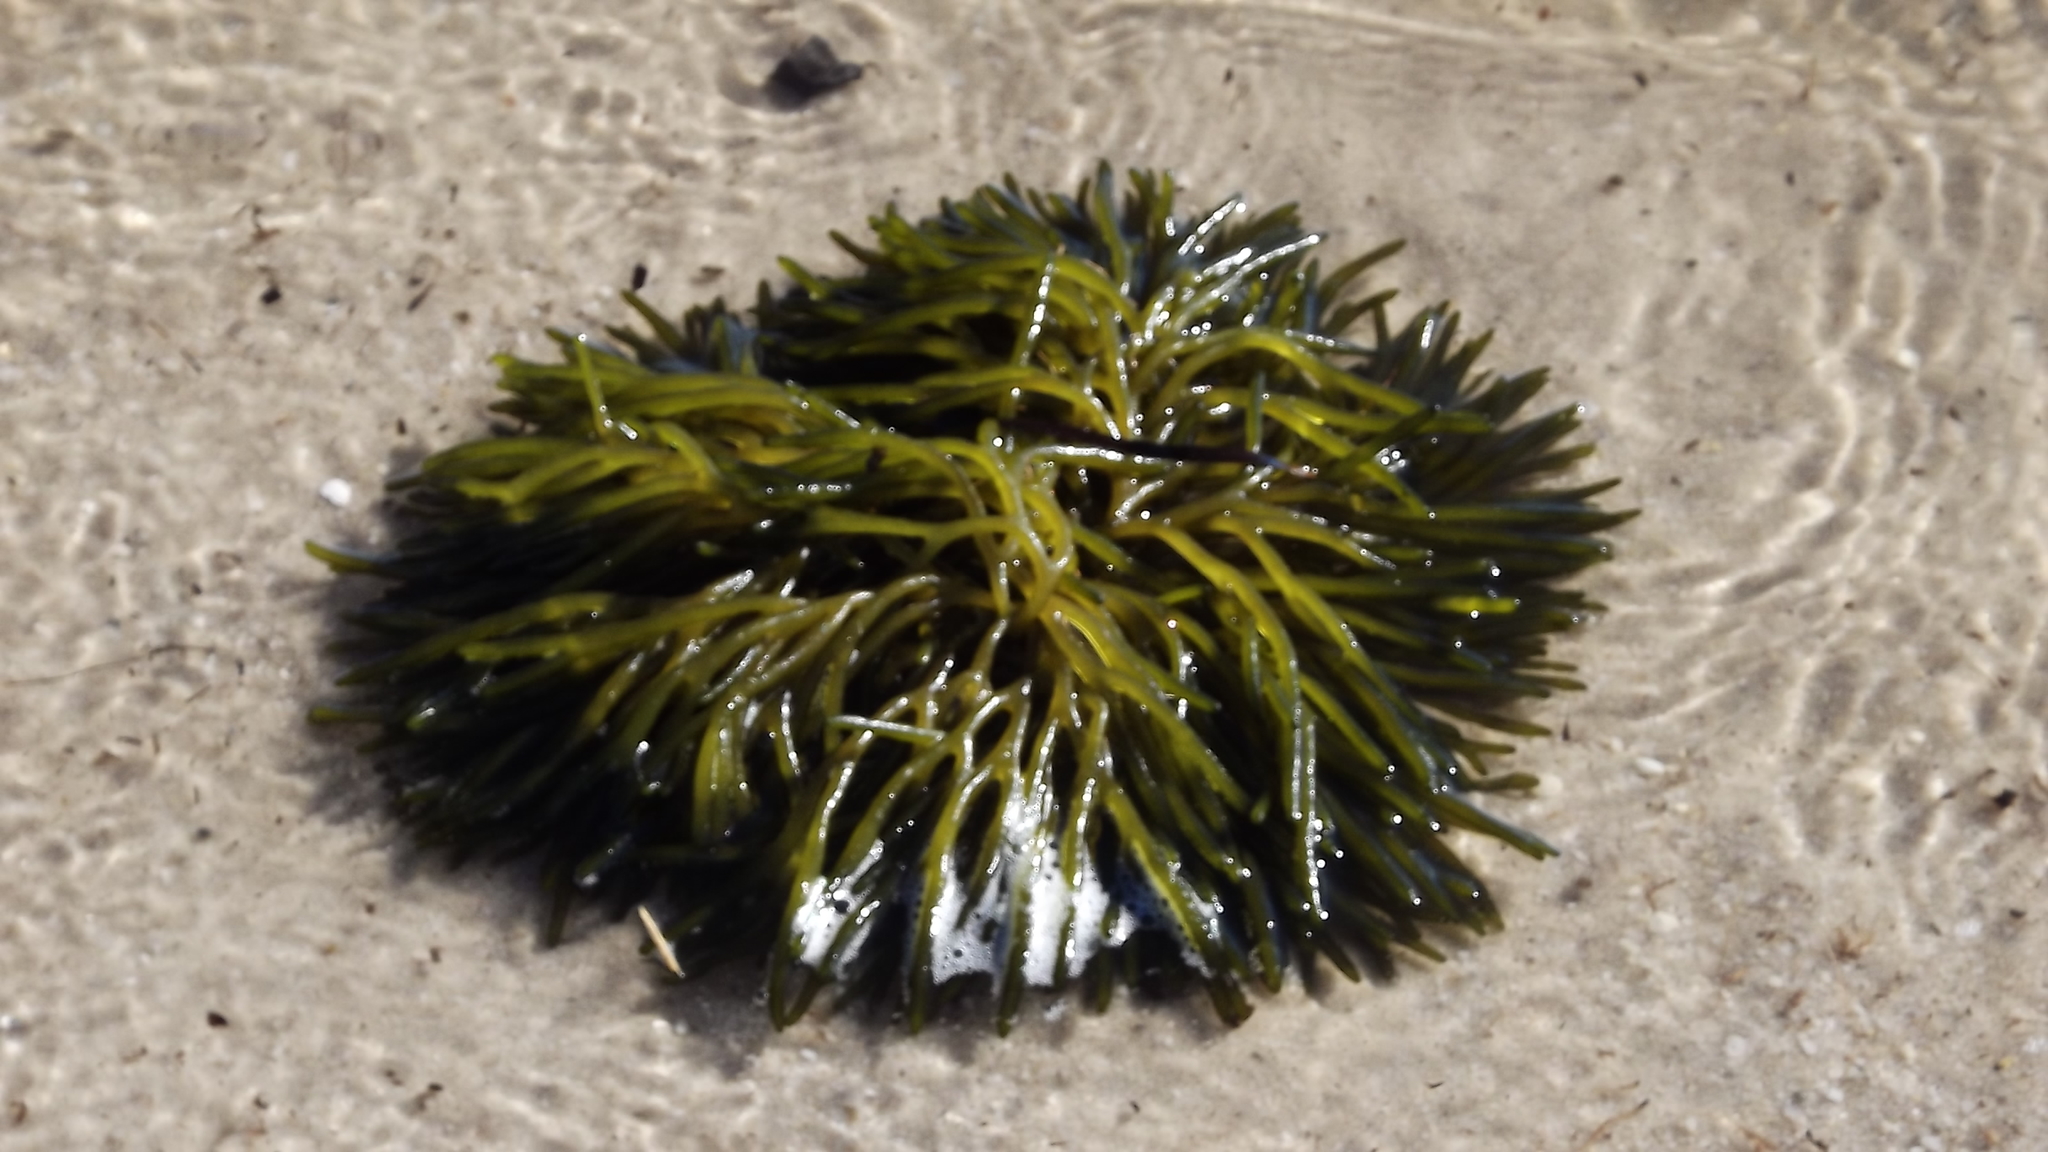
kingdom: Plantae
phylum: Chlorophyta
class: Ulvophyceae
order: Bryopsidales
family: Codiaceae
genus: Codium
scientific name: Codium fragile
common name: Dead man's fingers
